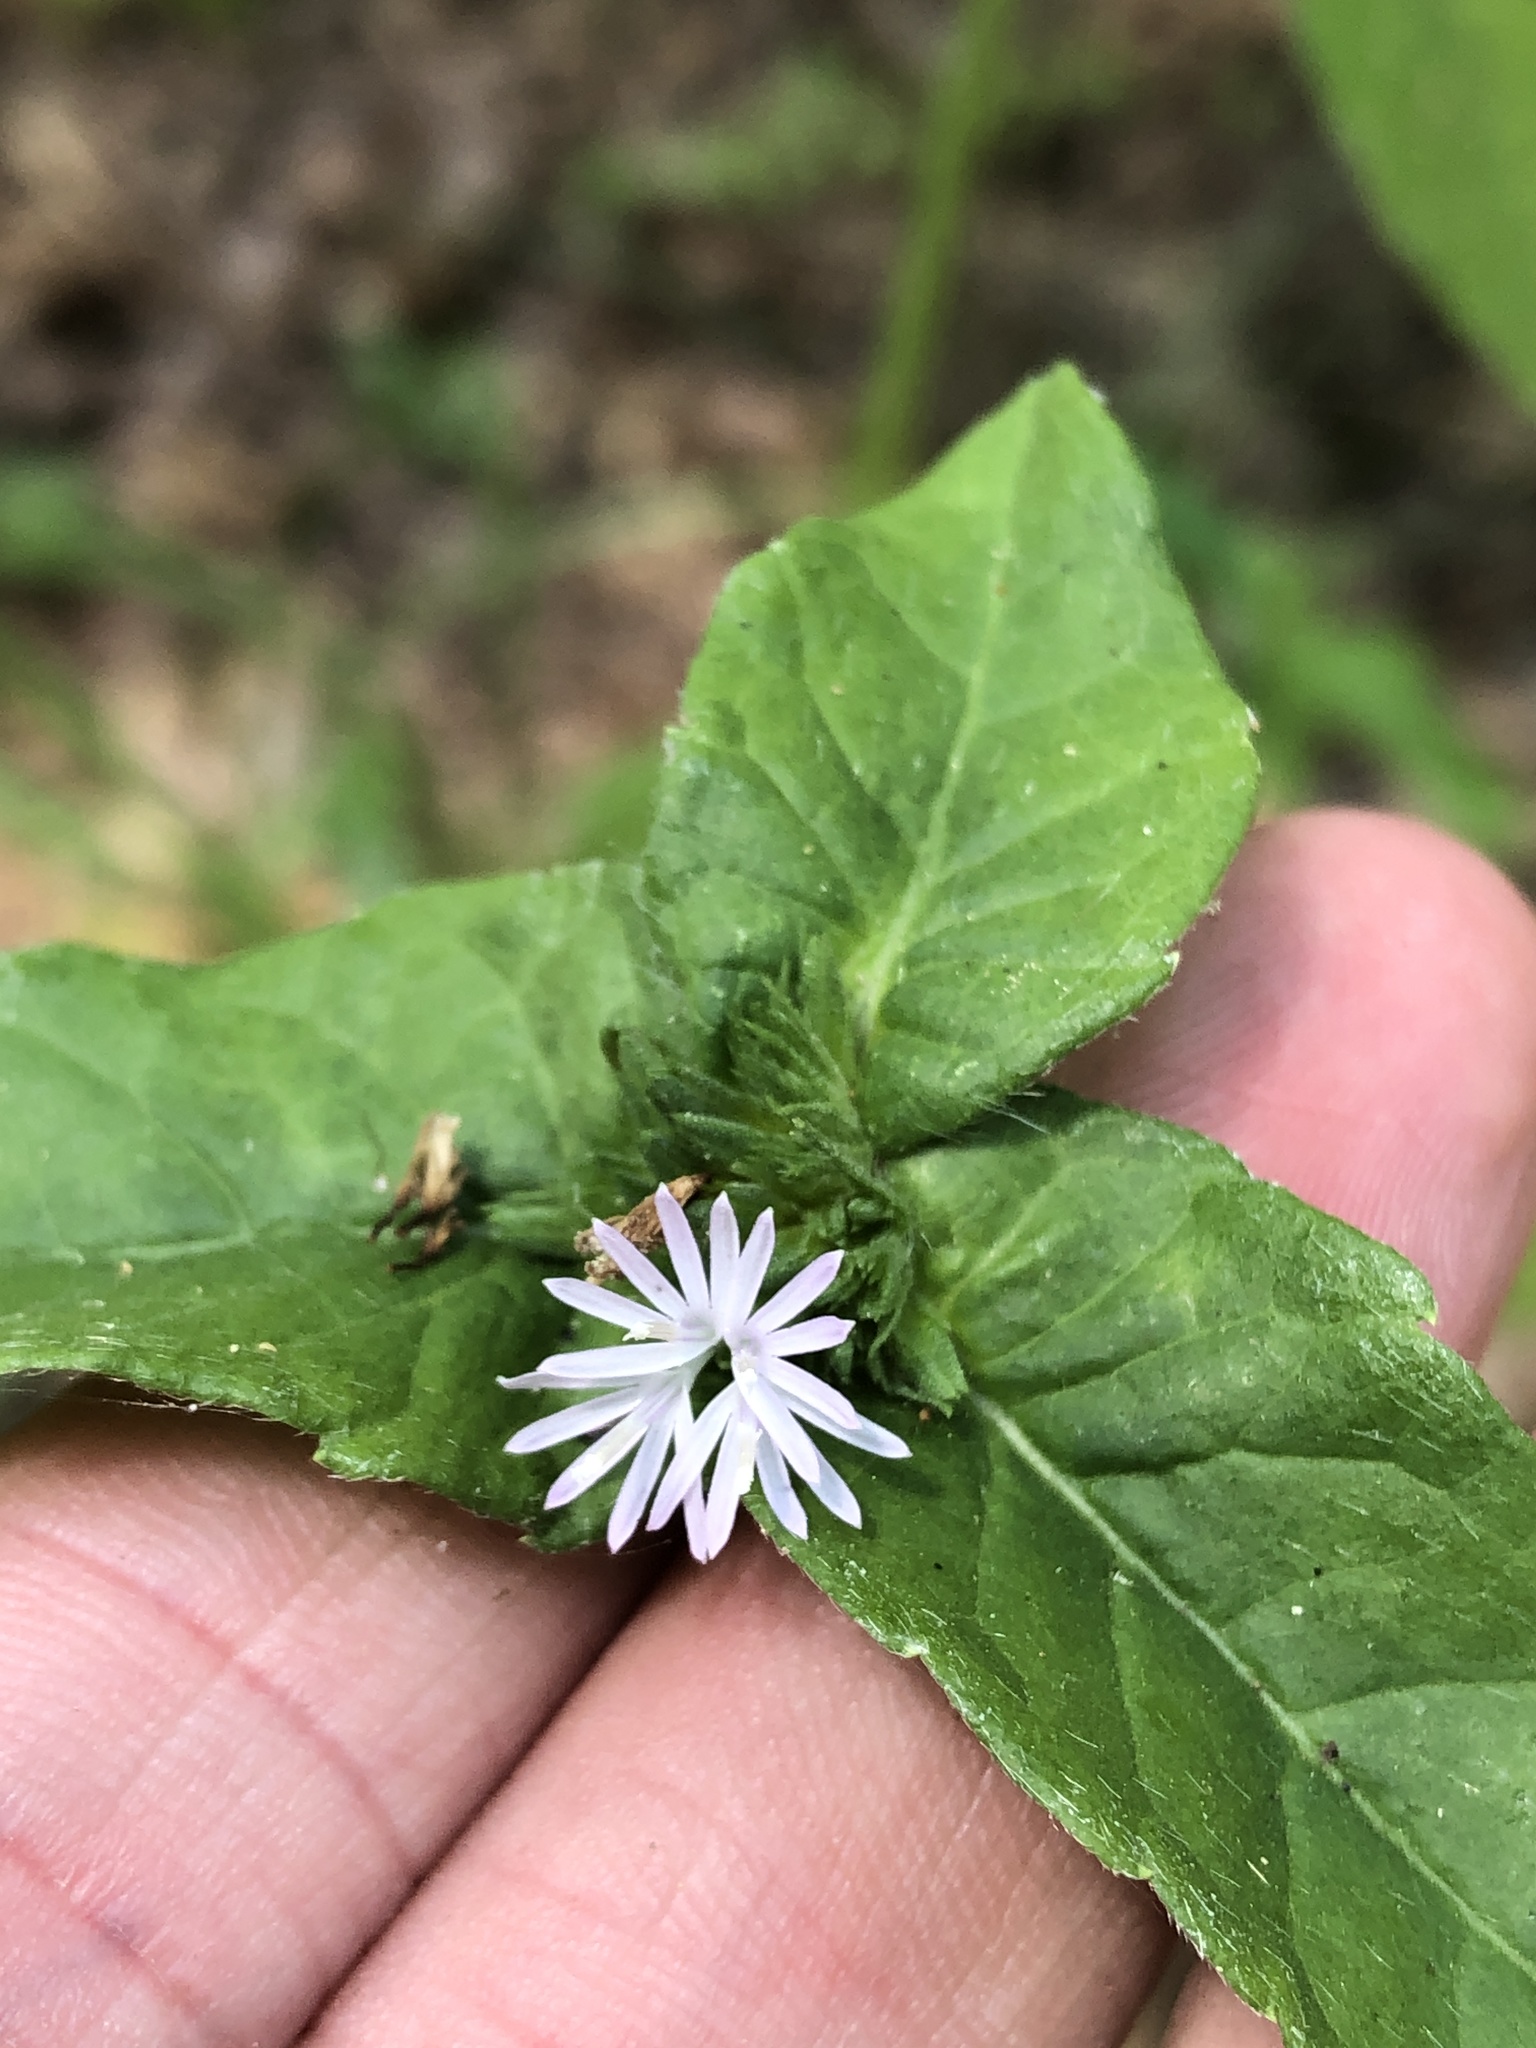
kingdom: Plantae
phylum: Tracheophyta
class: Magnoliopsida
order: Asterales
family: Asteraceae
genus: Elephantopus
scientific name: Elephantopus carolinianus
